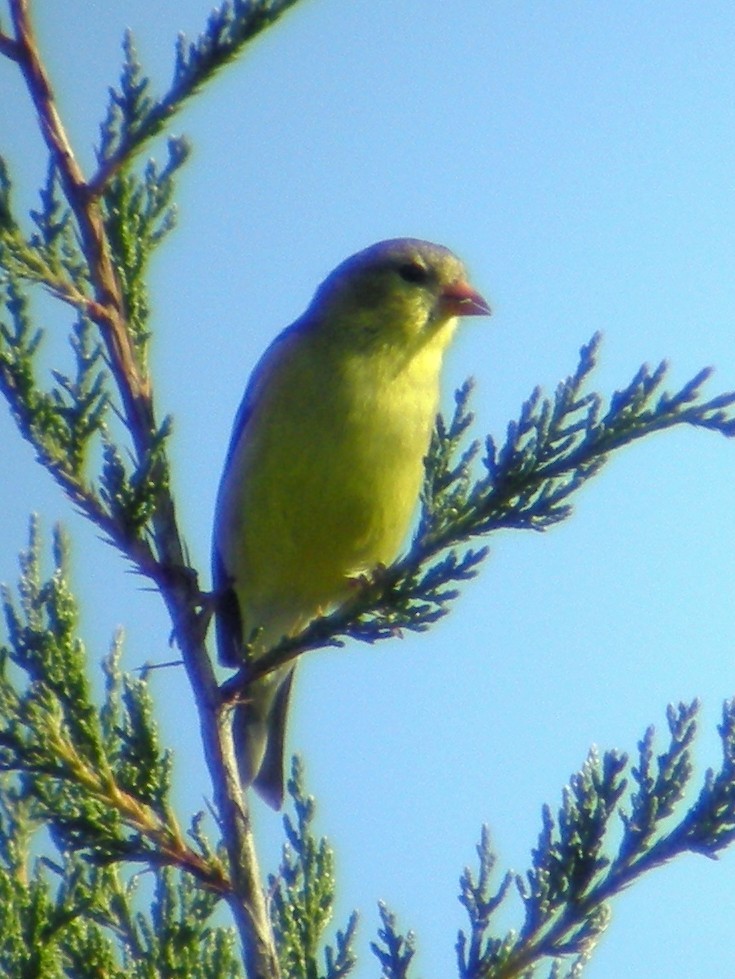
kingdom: Animalia
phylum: Chordata
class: Aves
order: Passeriformes
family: Fringillidae
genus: Spinus
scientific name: Spinus tristis
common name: American goldfinch
